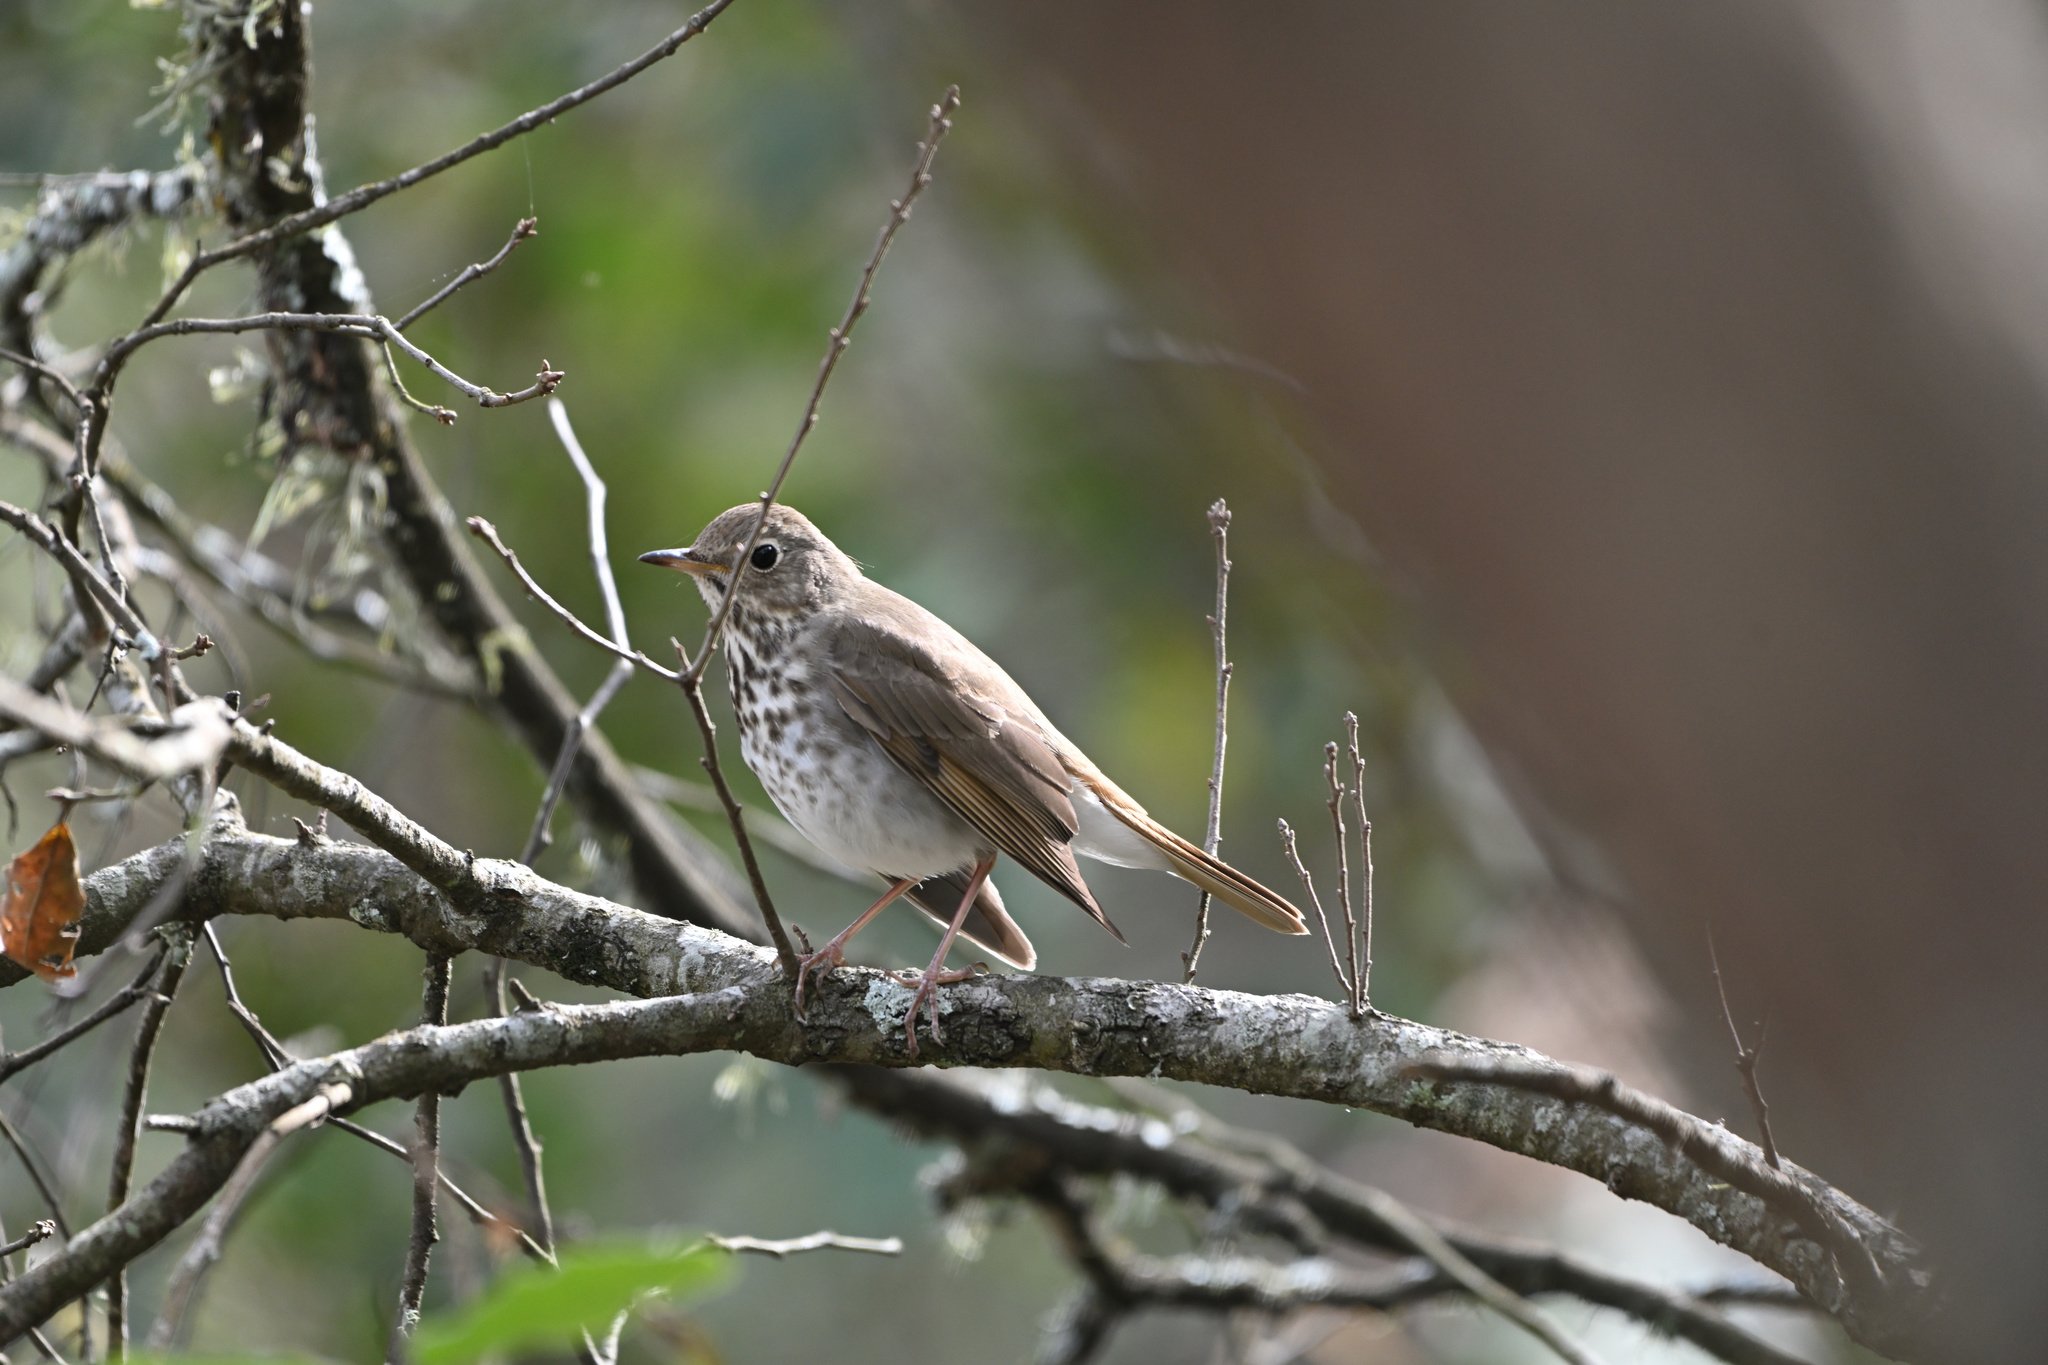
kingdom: Animalia
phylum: Chordata
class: Aves
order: Passeriformes
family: Turdidae
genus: Catharus
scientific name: Catharus guttatus
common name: Hermit thrush
